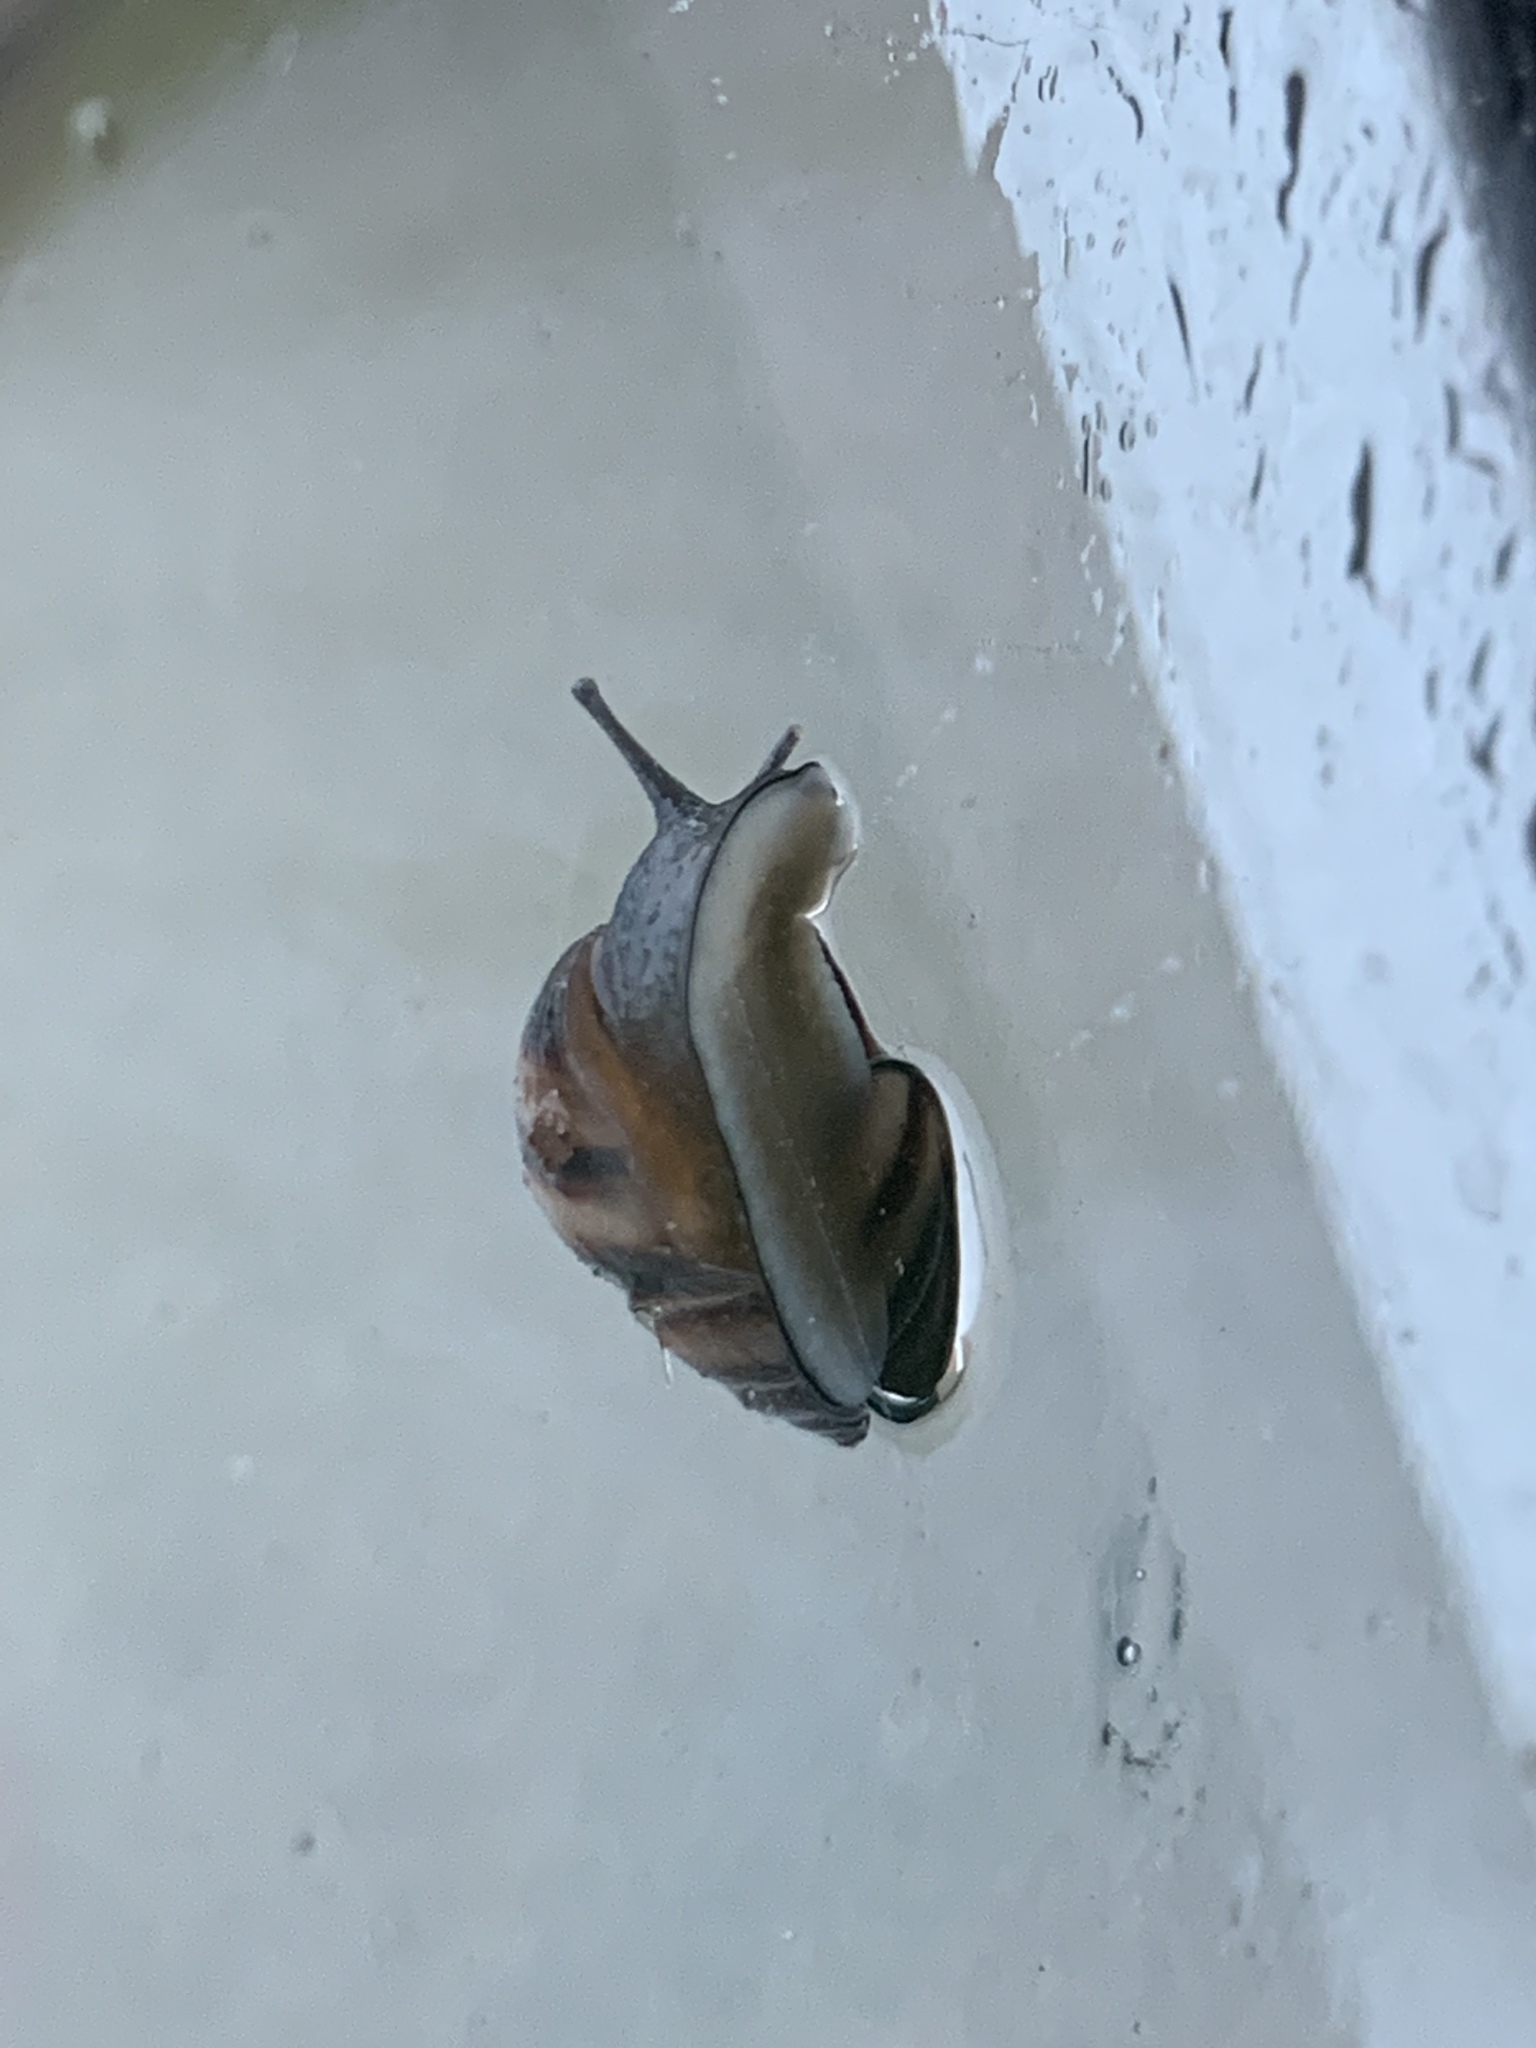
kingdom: Animalia
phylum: Mollusca
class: Gastropoda
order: Stylommatophora
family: Bulimulidae
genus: Bulimulus
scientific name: Bulimulus guadalupensis
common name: West indian bulimulus
